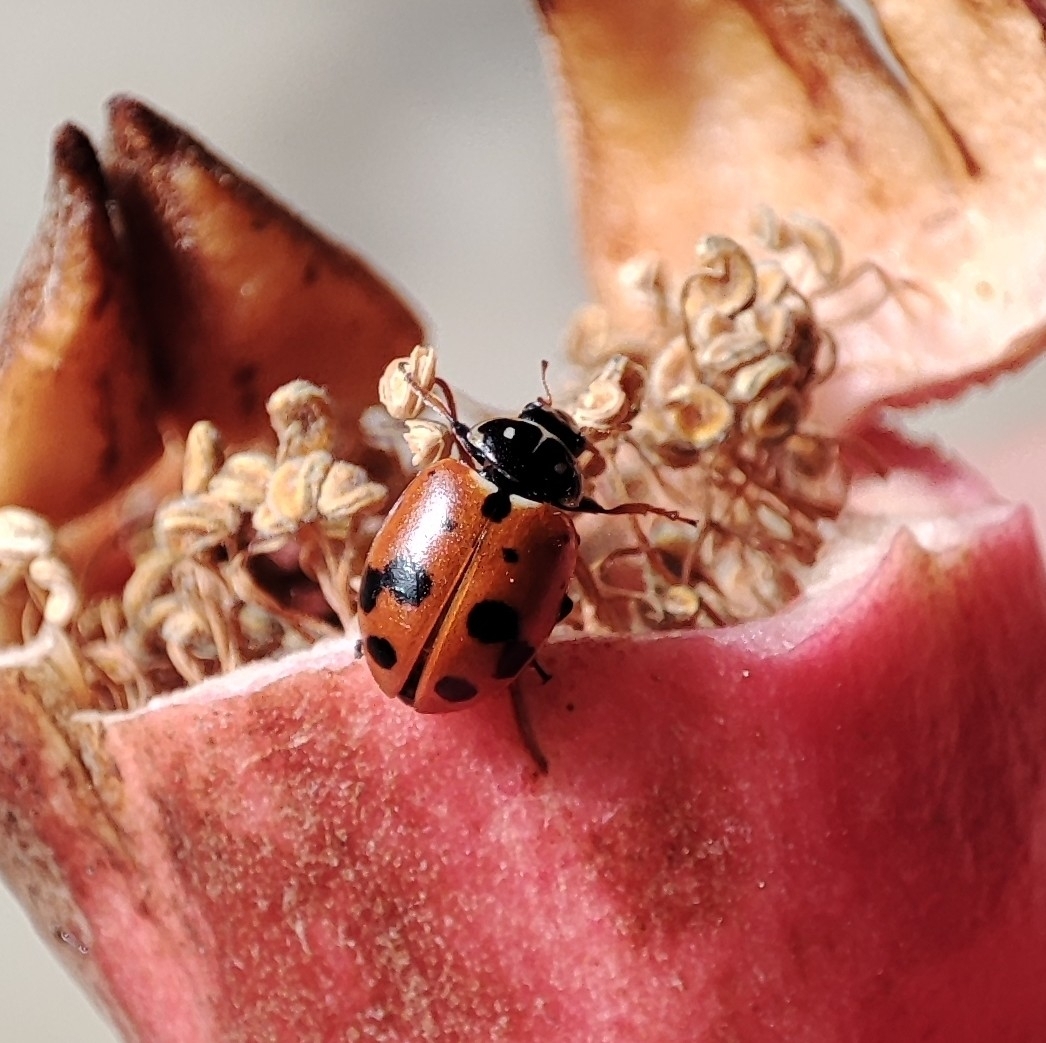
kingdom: Animalia
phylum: Arthropoda
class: Insecta
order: Coleoptera
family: Coccinellidae
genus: Hippodamia
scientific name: Hippodamia variegata
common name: Ladybird beetle
